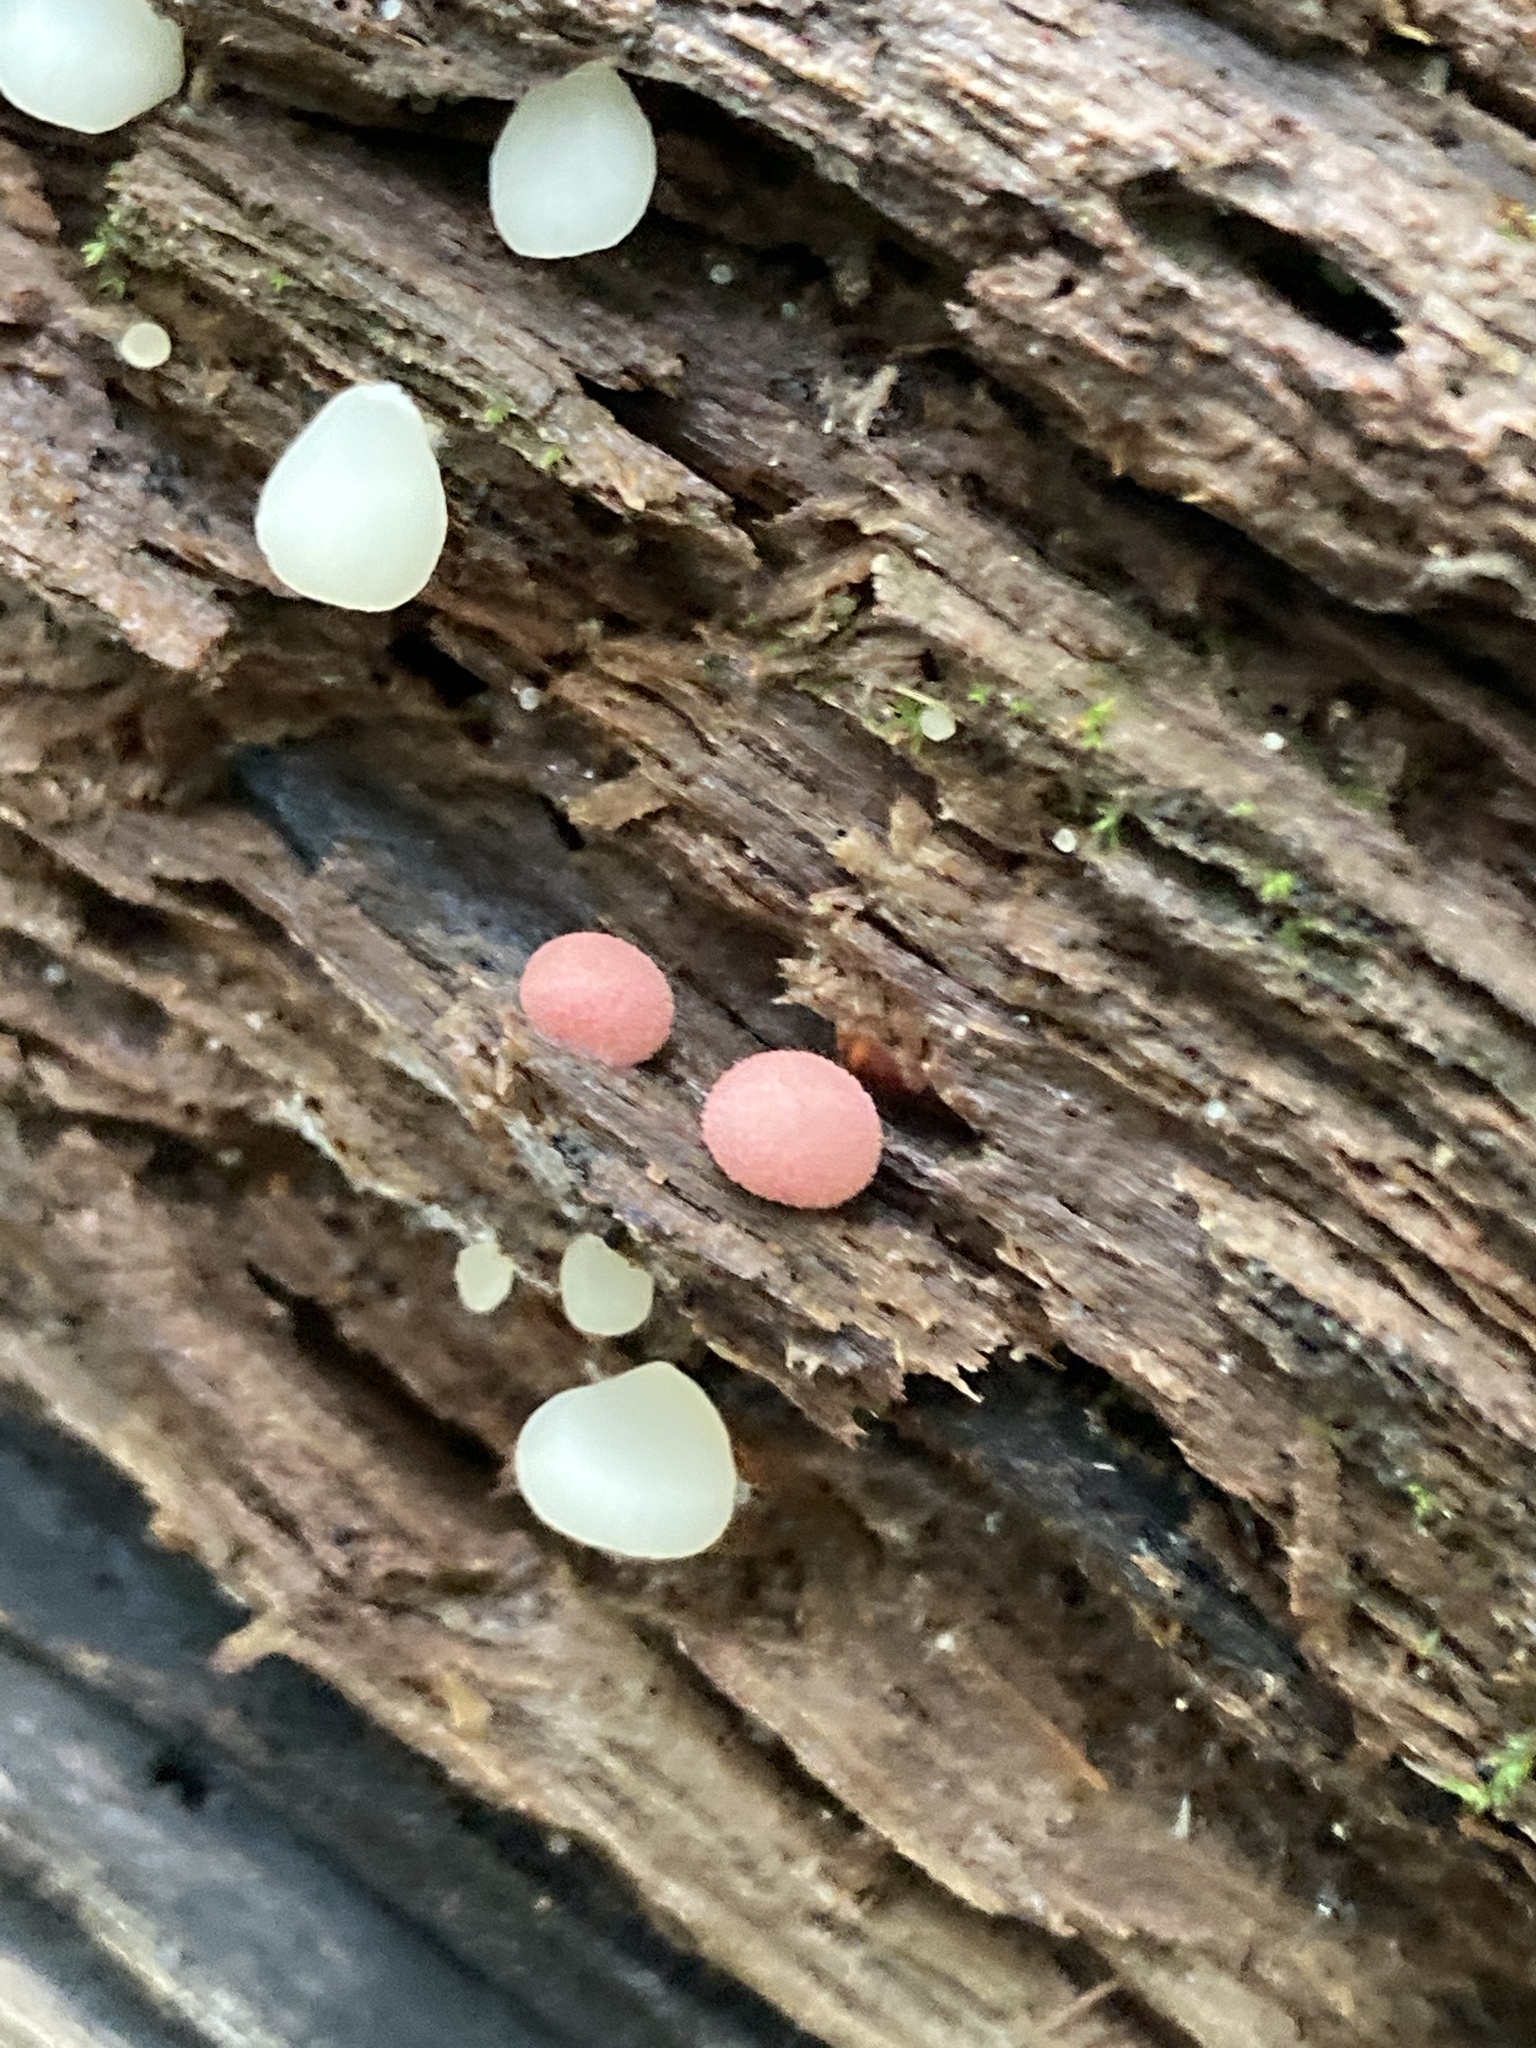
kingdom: Protozoa
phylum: Mycetozoa
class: Myxomycetes
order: Cribrariales
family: Tubiferaceae
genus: Lycogala
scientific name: Lycogala epidendrum
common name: Wolf's milk
